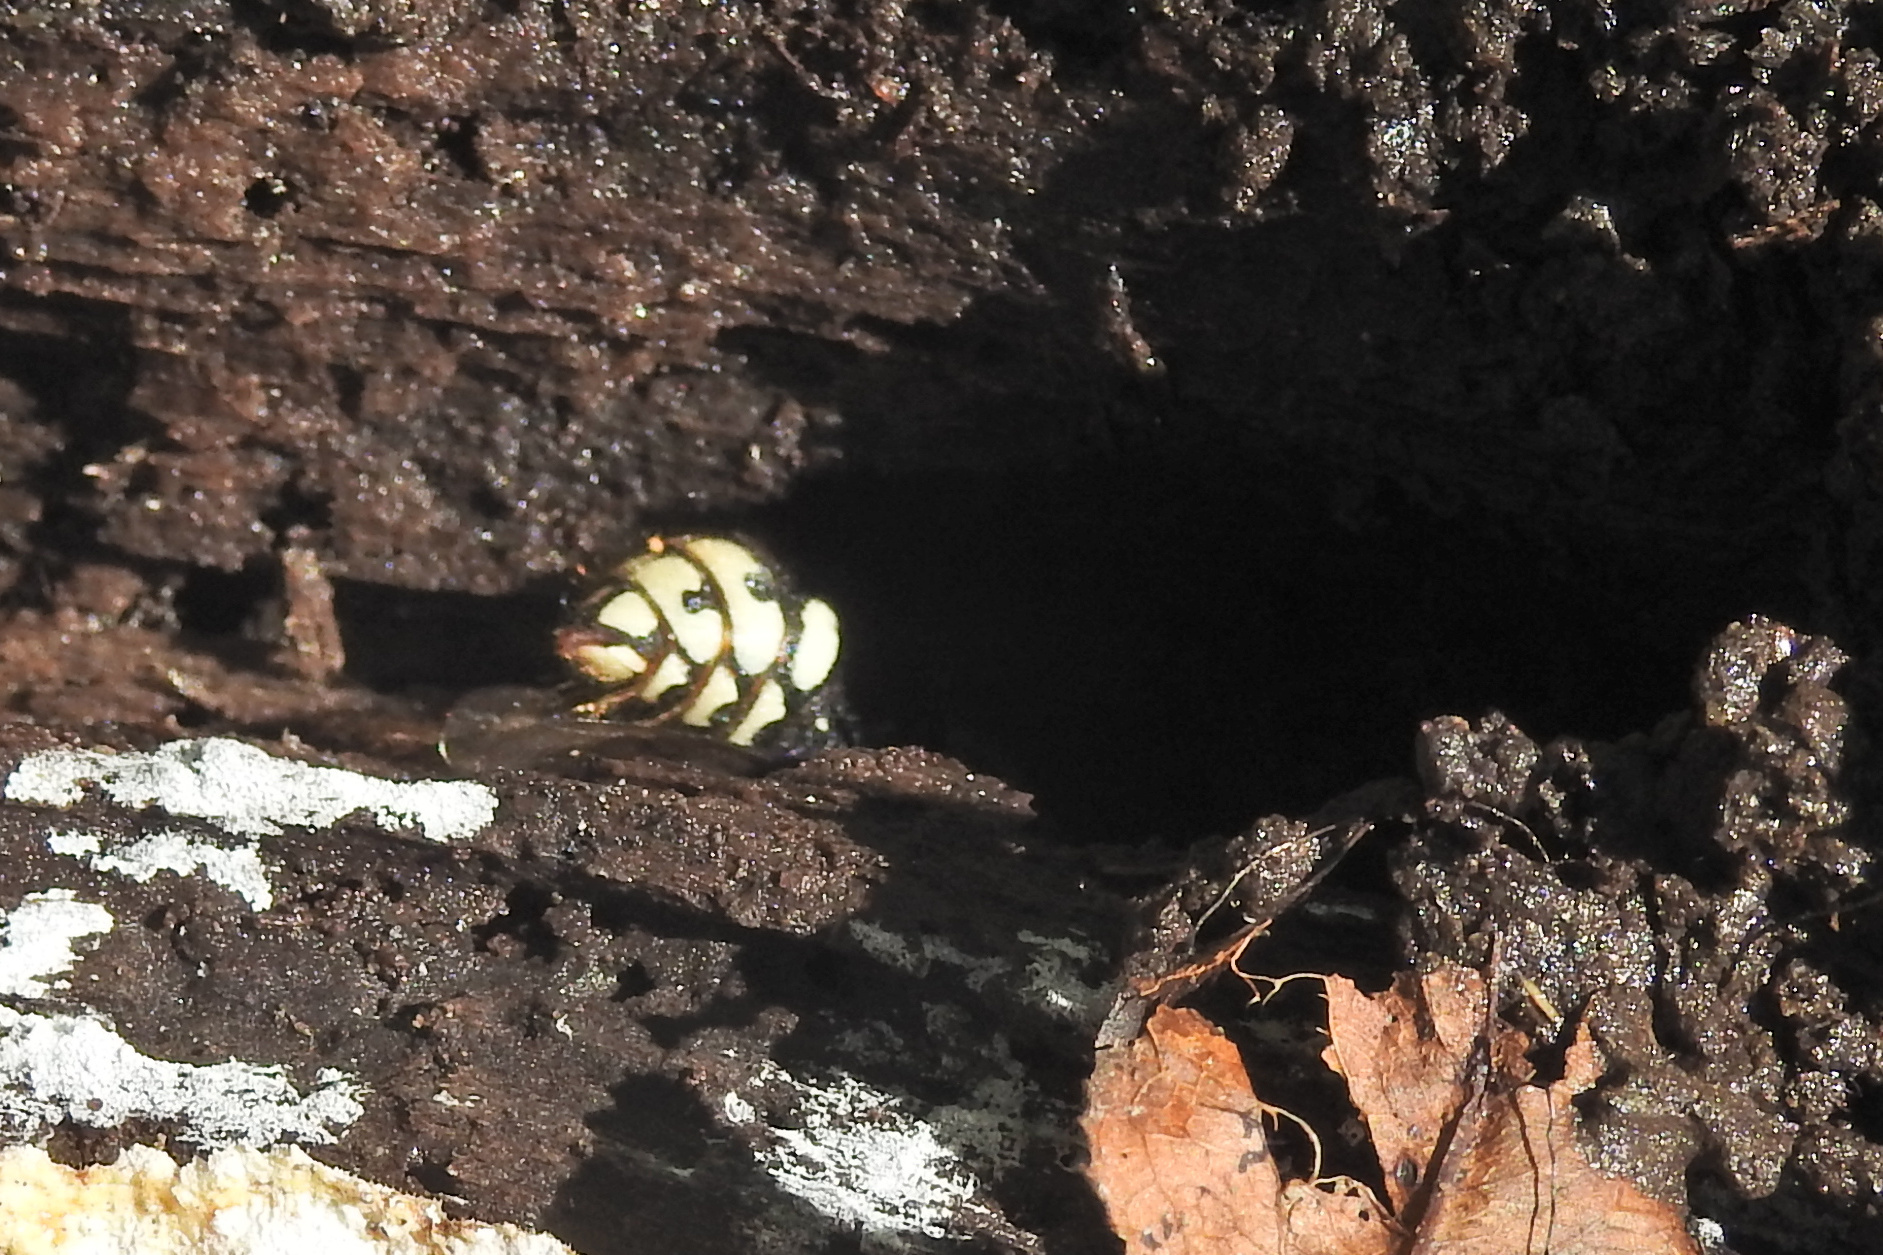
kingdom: Animalia
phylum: Arthropoda
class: Insecta
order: Hymenoptera
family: Vespidae
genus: Dolichovespula
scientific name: Dolichovespula maculata
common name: Bald-faced hornet
